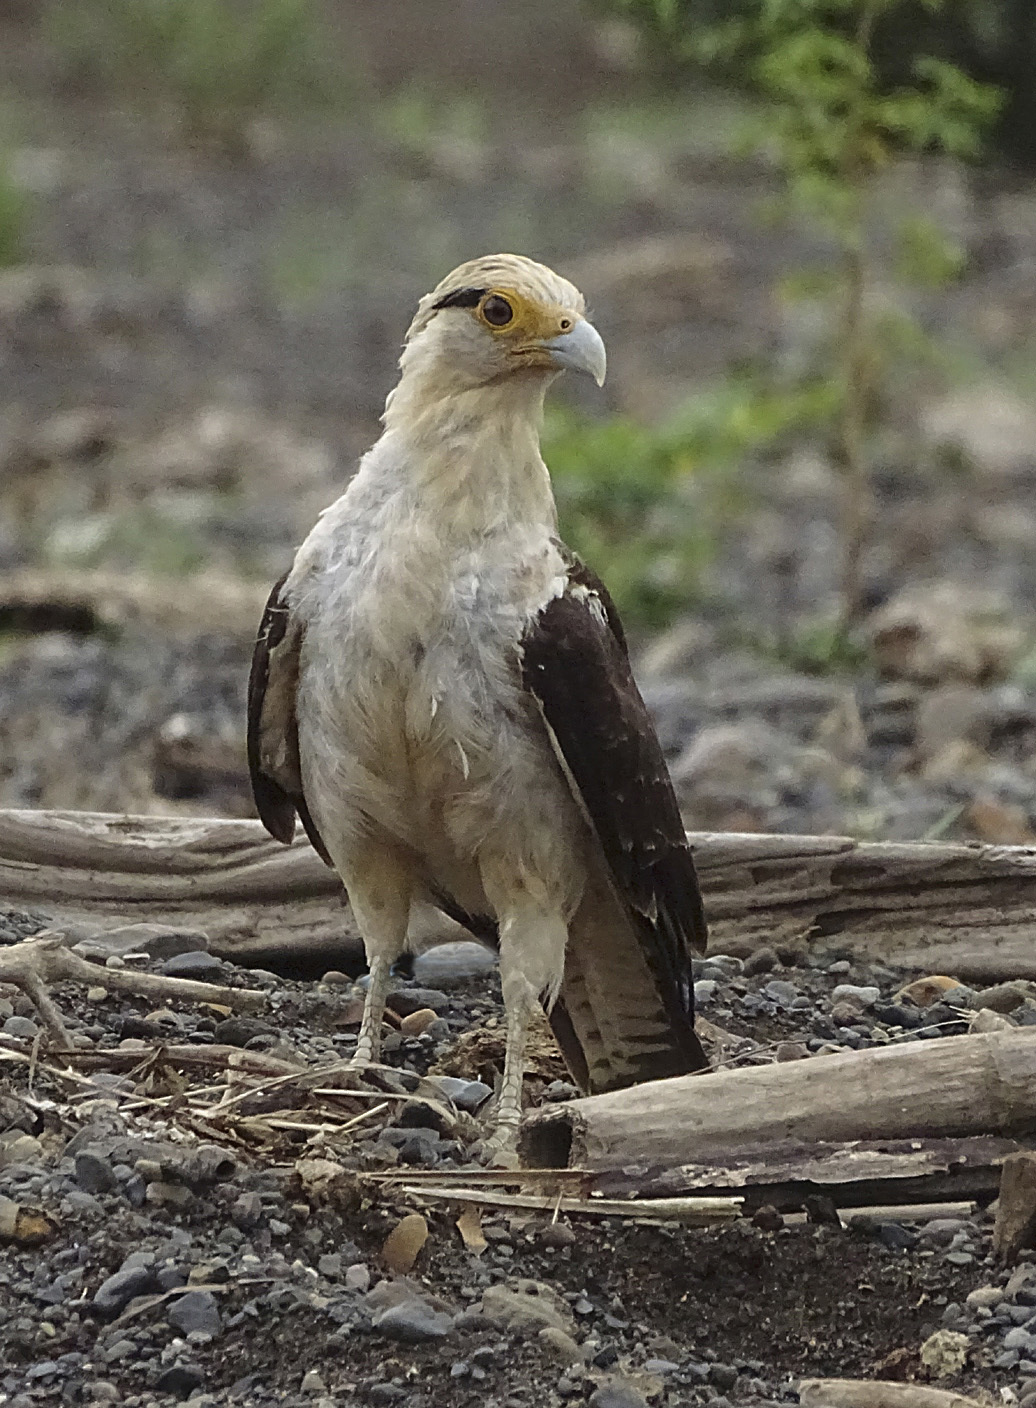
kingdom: Animalia
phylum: Chordata
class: Aves
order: Falconiformes
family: Falconidae
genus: Daptrius
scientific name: Daptrius
